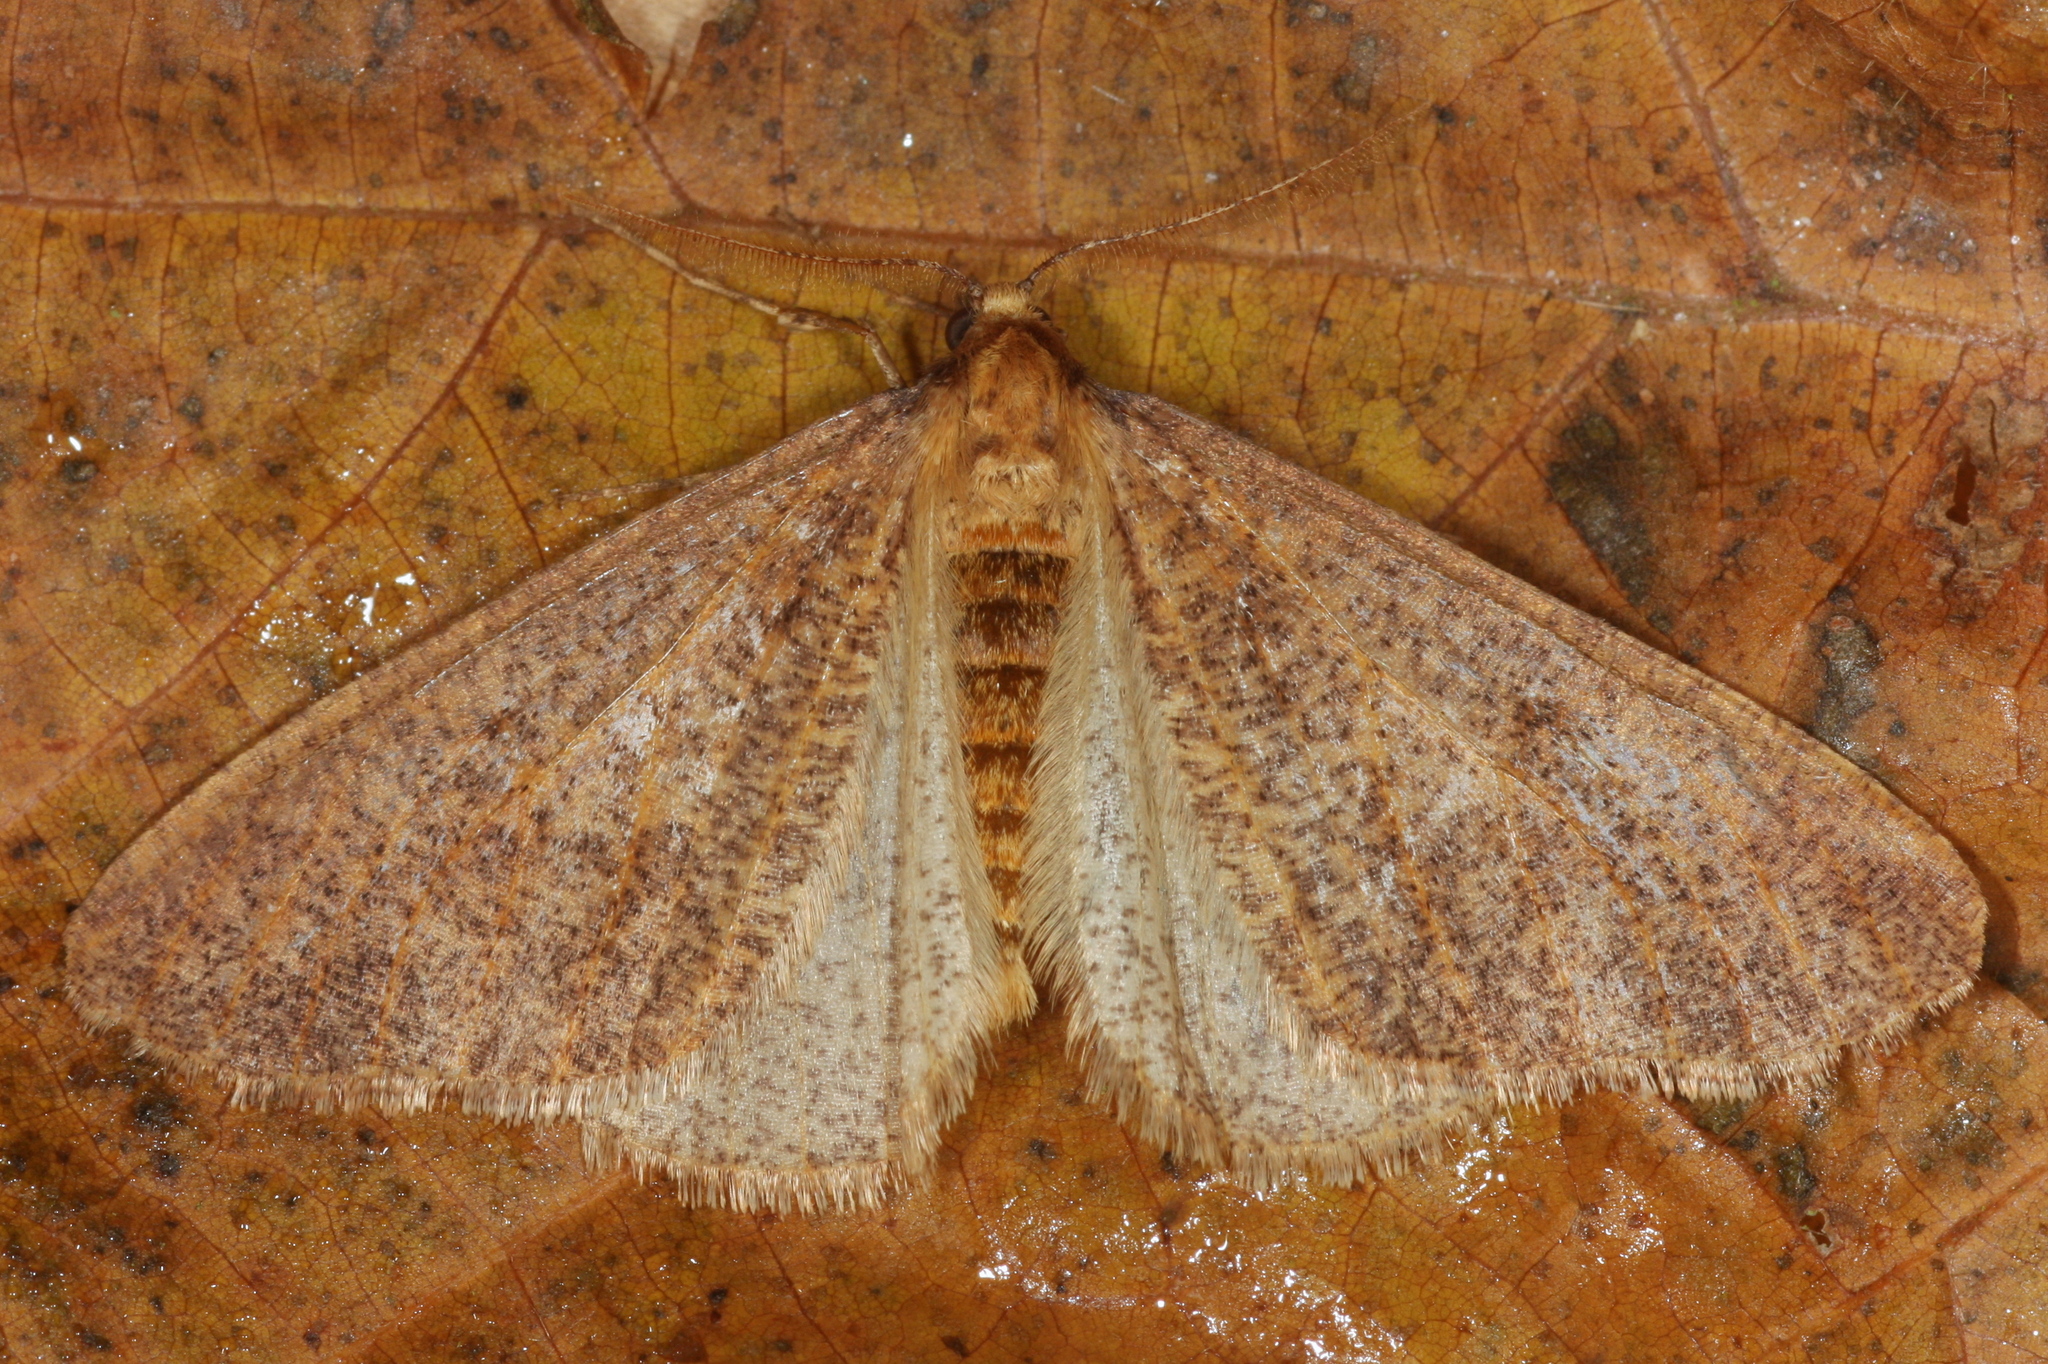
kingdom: Animalia
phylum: Arthropoda
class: Insecta
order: Lepidoptera
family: Geometridae
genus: Erannis
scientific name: Erannis defoliaria
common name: Mottled umber
